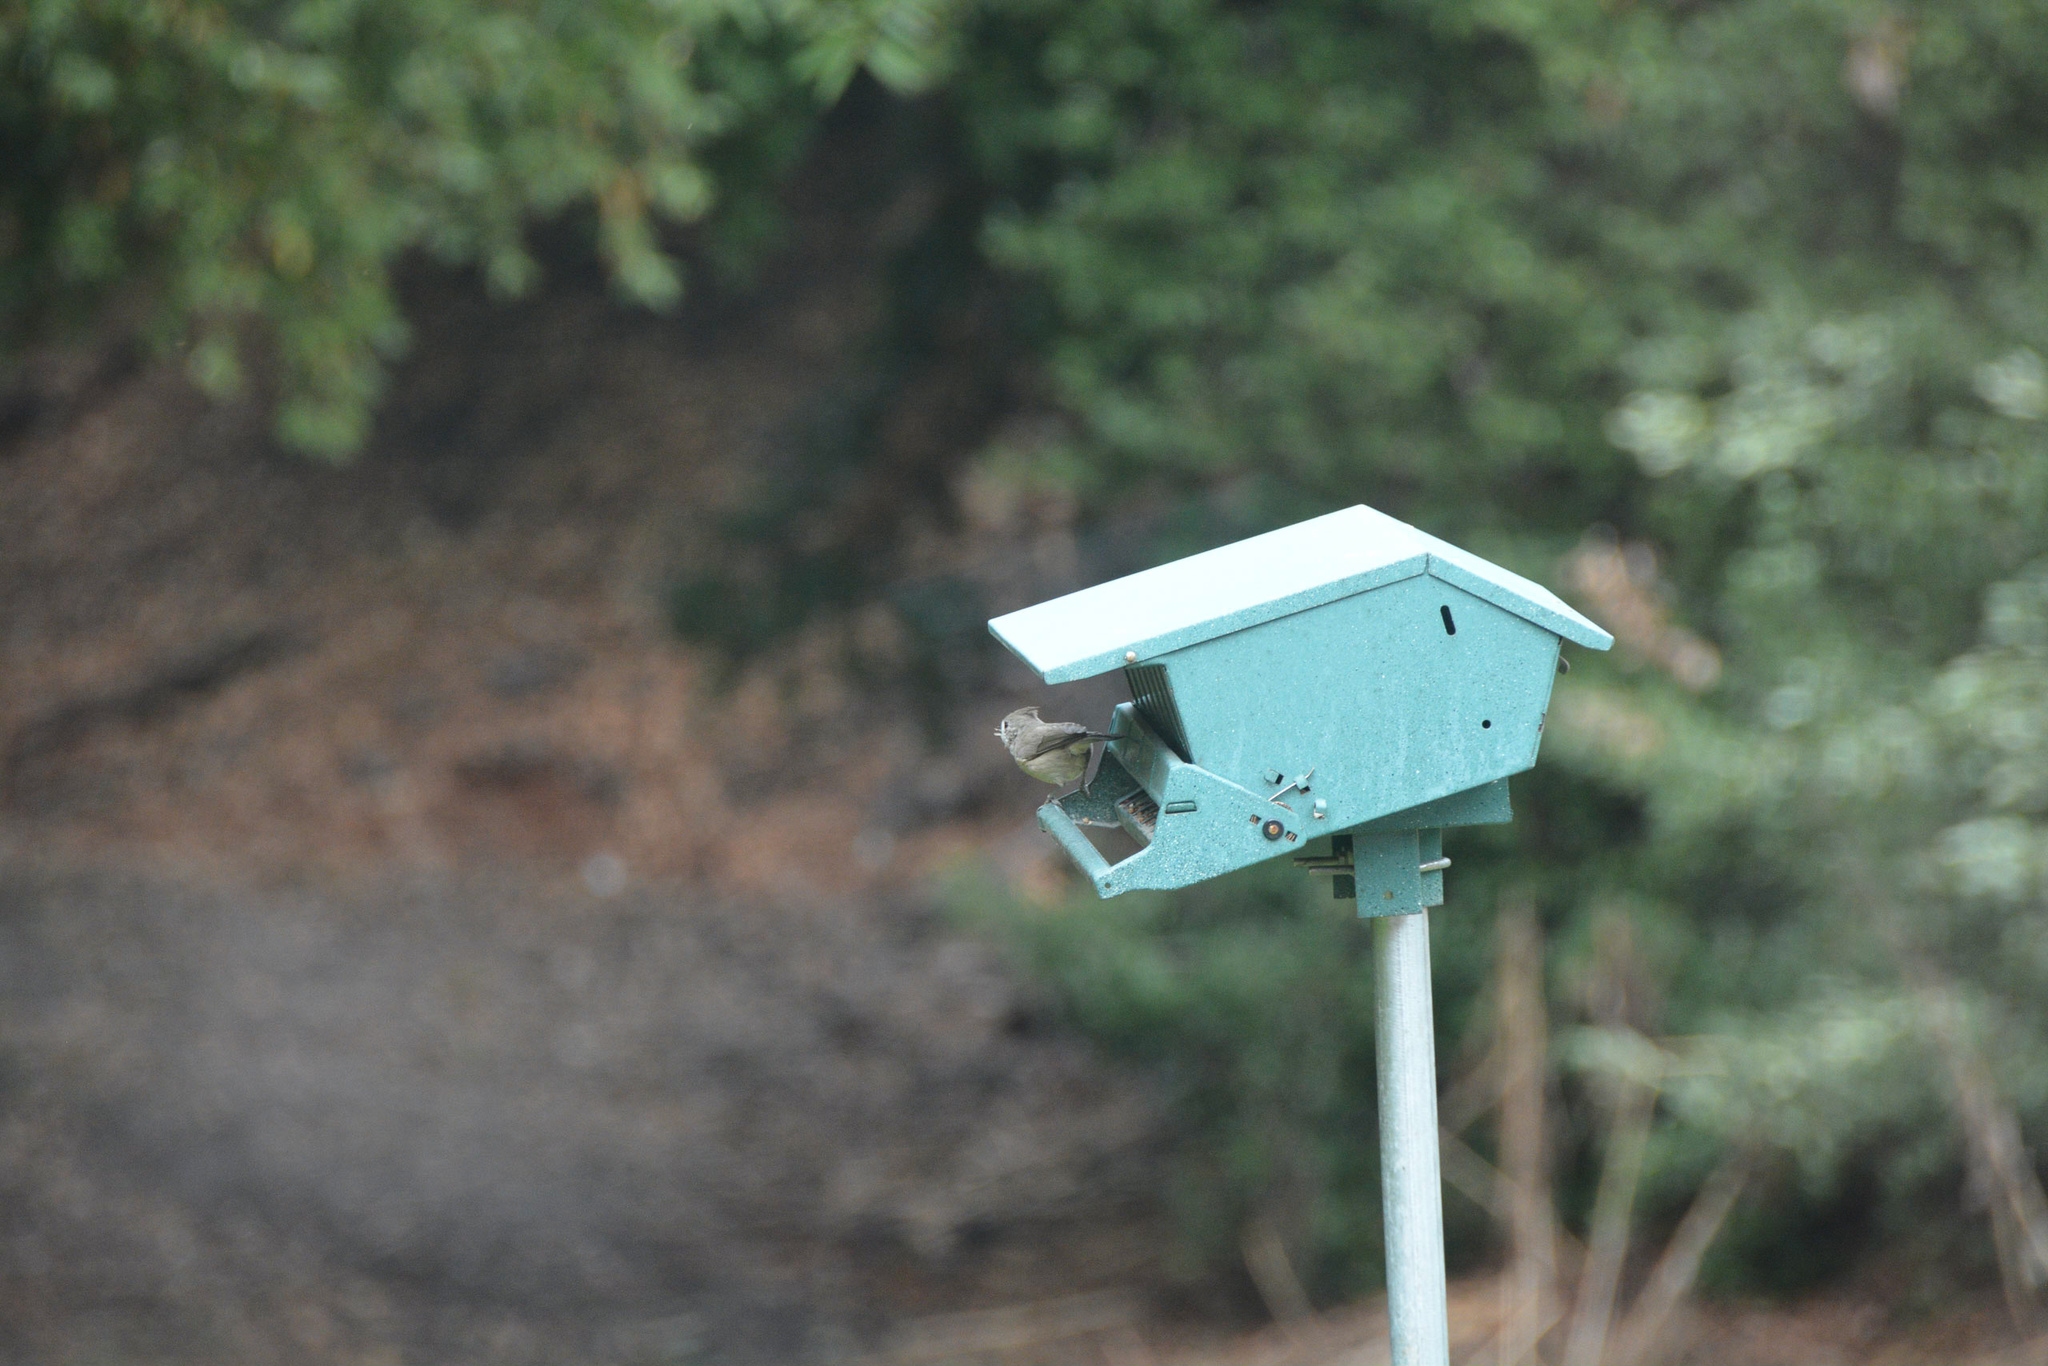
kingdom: Animalia
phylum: Chordata
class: Aves
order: Passeriformes
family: Paridae
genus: Baeolophus
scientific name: Baeolophus inornatus
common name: Oak titmouse
